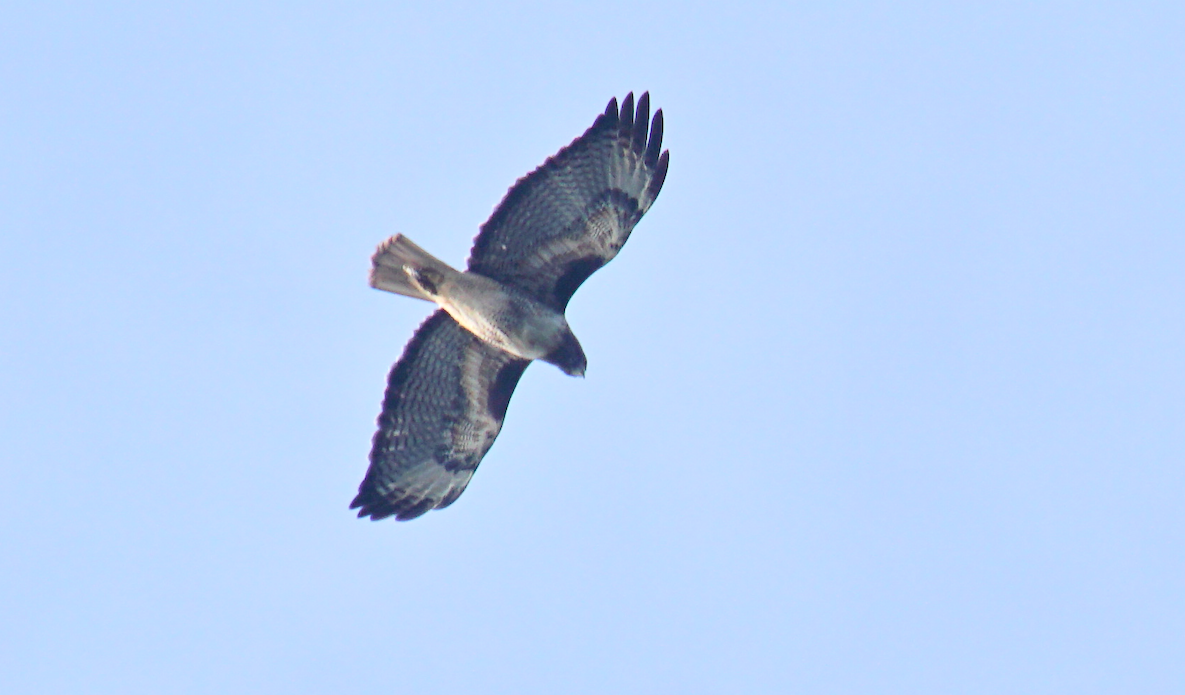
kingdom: Animalia
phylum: Chordata
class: Aves
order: Accipitriformes
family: Accipitridae
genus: Buteo
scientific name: Buteo jamaicensis
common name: Red-tailed hawk
